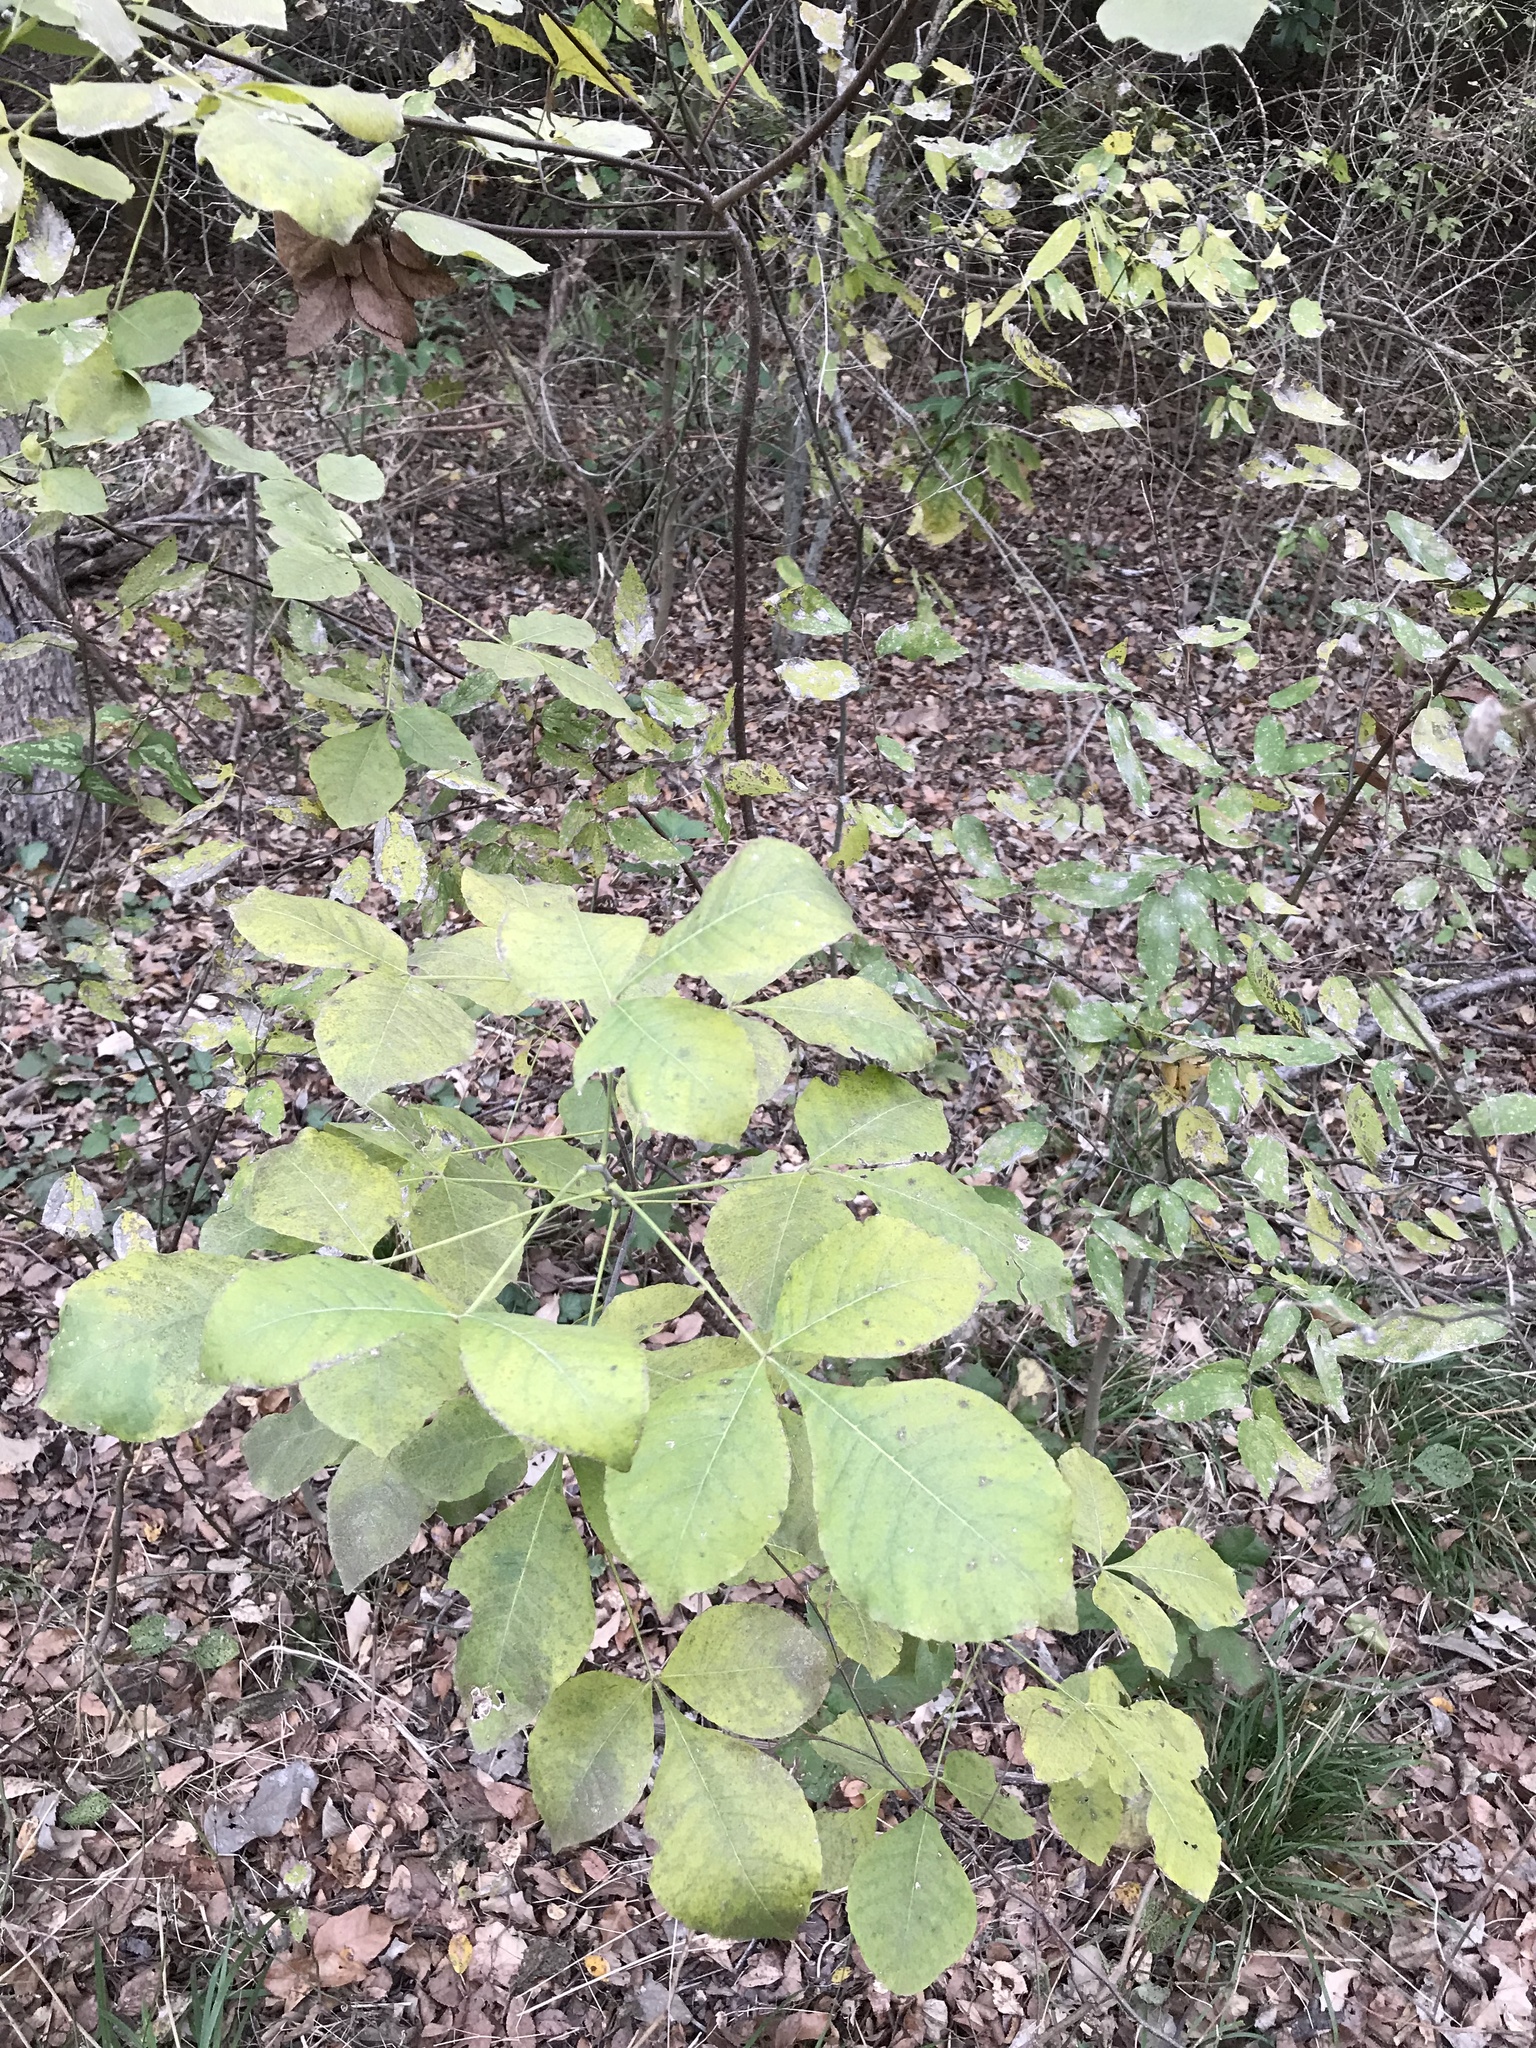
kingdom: Plantae
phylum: Tracheophyta
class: Magnoliopsida
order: Sapindales
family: Rutaceae
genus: Ptelea
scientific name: Ptelea trifoliata
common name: Common hop-tree
